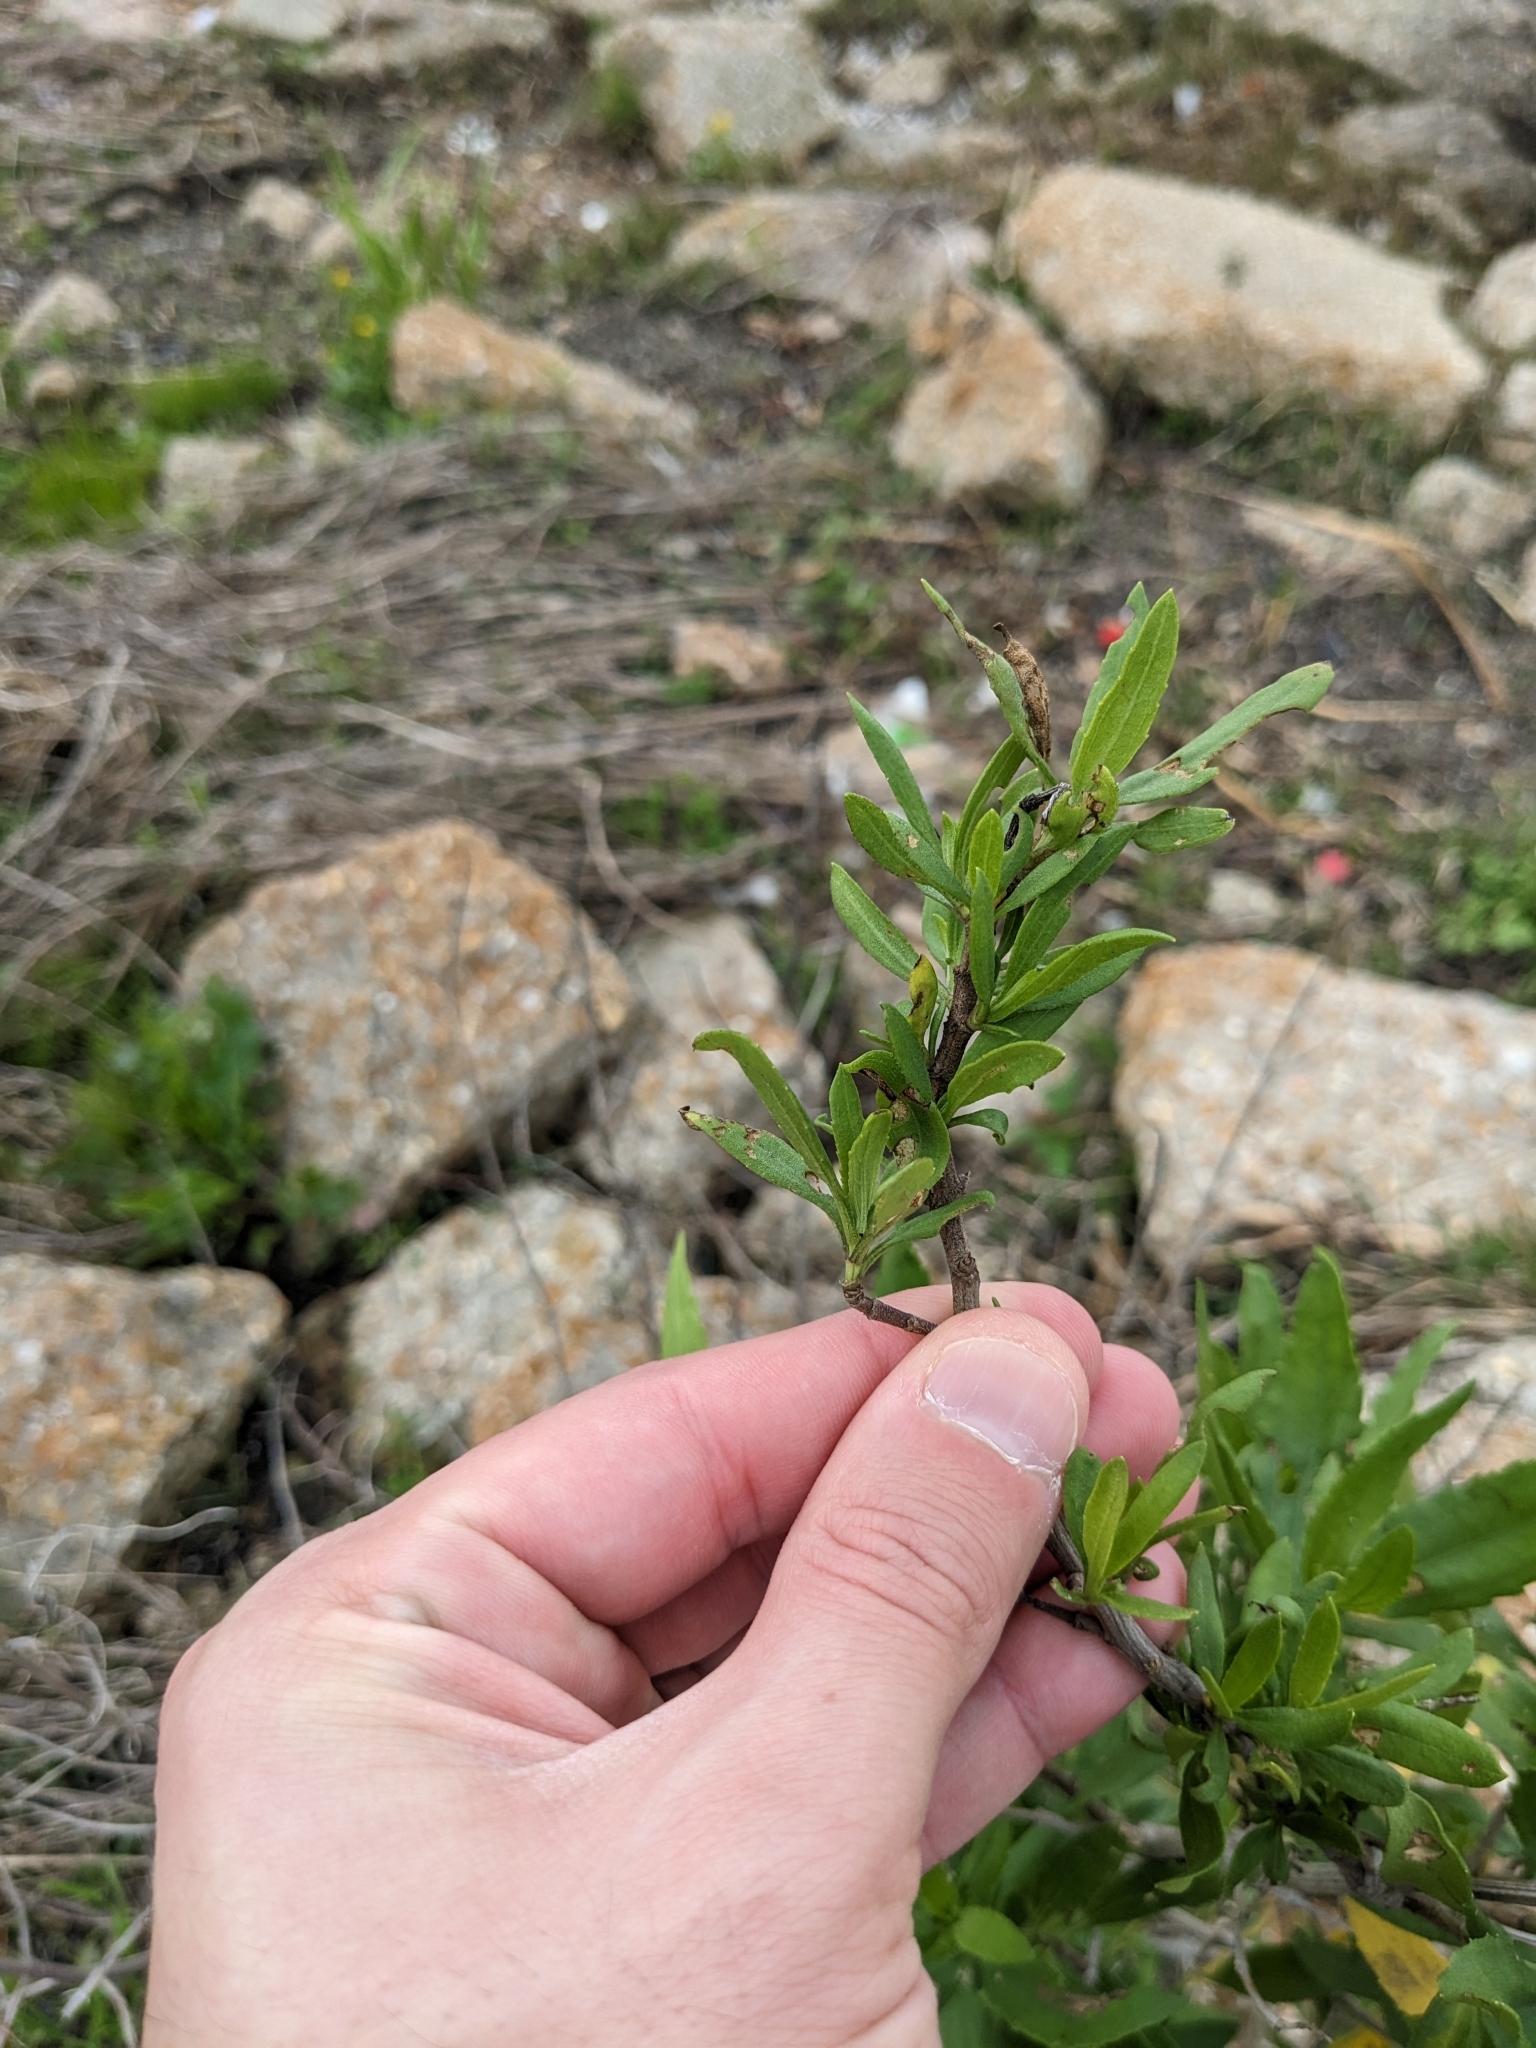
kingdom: Plantae
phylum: Tracheophyta
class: Magnoliopsida
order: Asterales
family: Asteraceae
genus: Iva
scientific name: Iva frutescens
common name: Big-leaved marsh-elder
